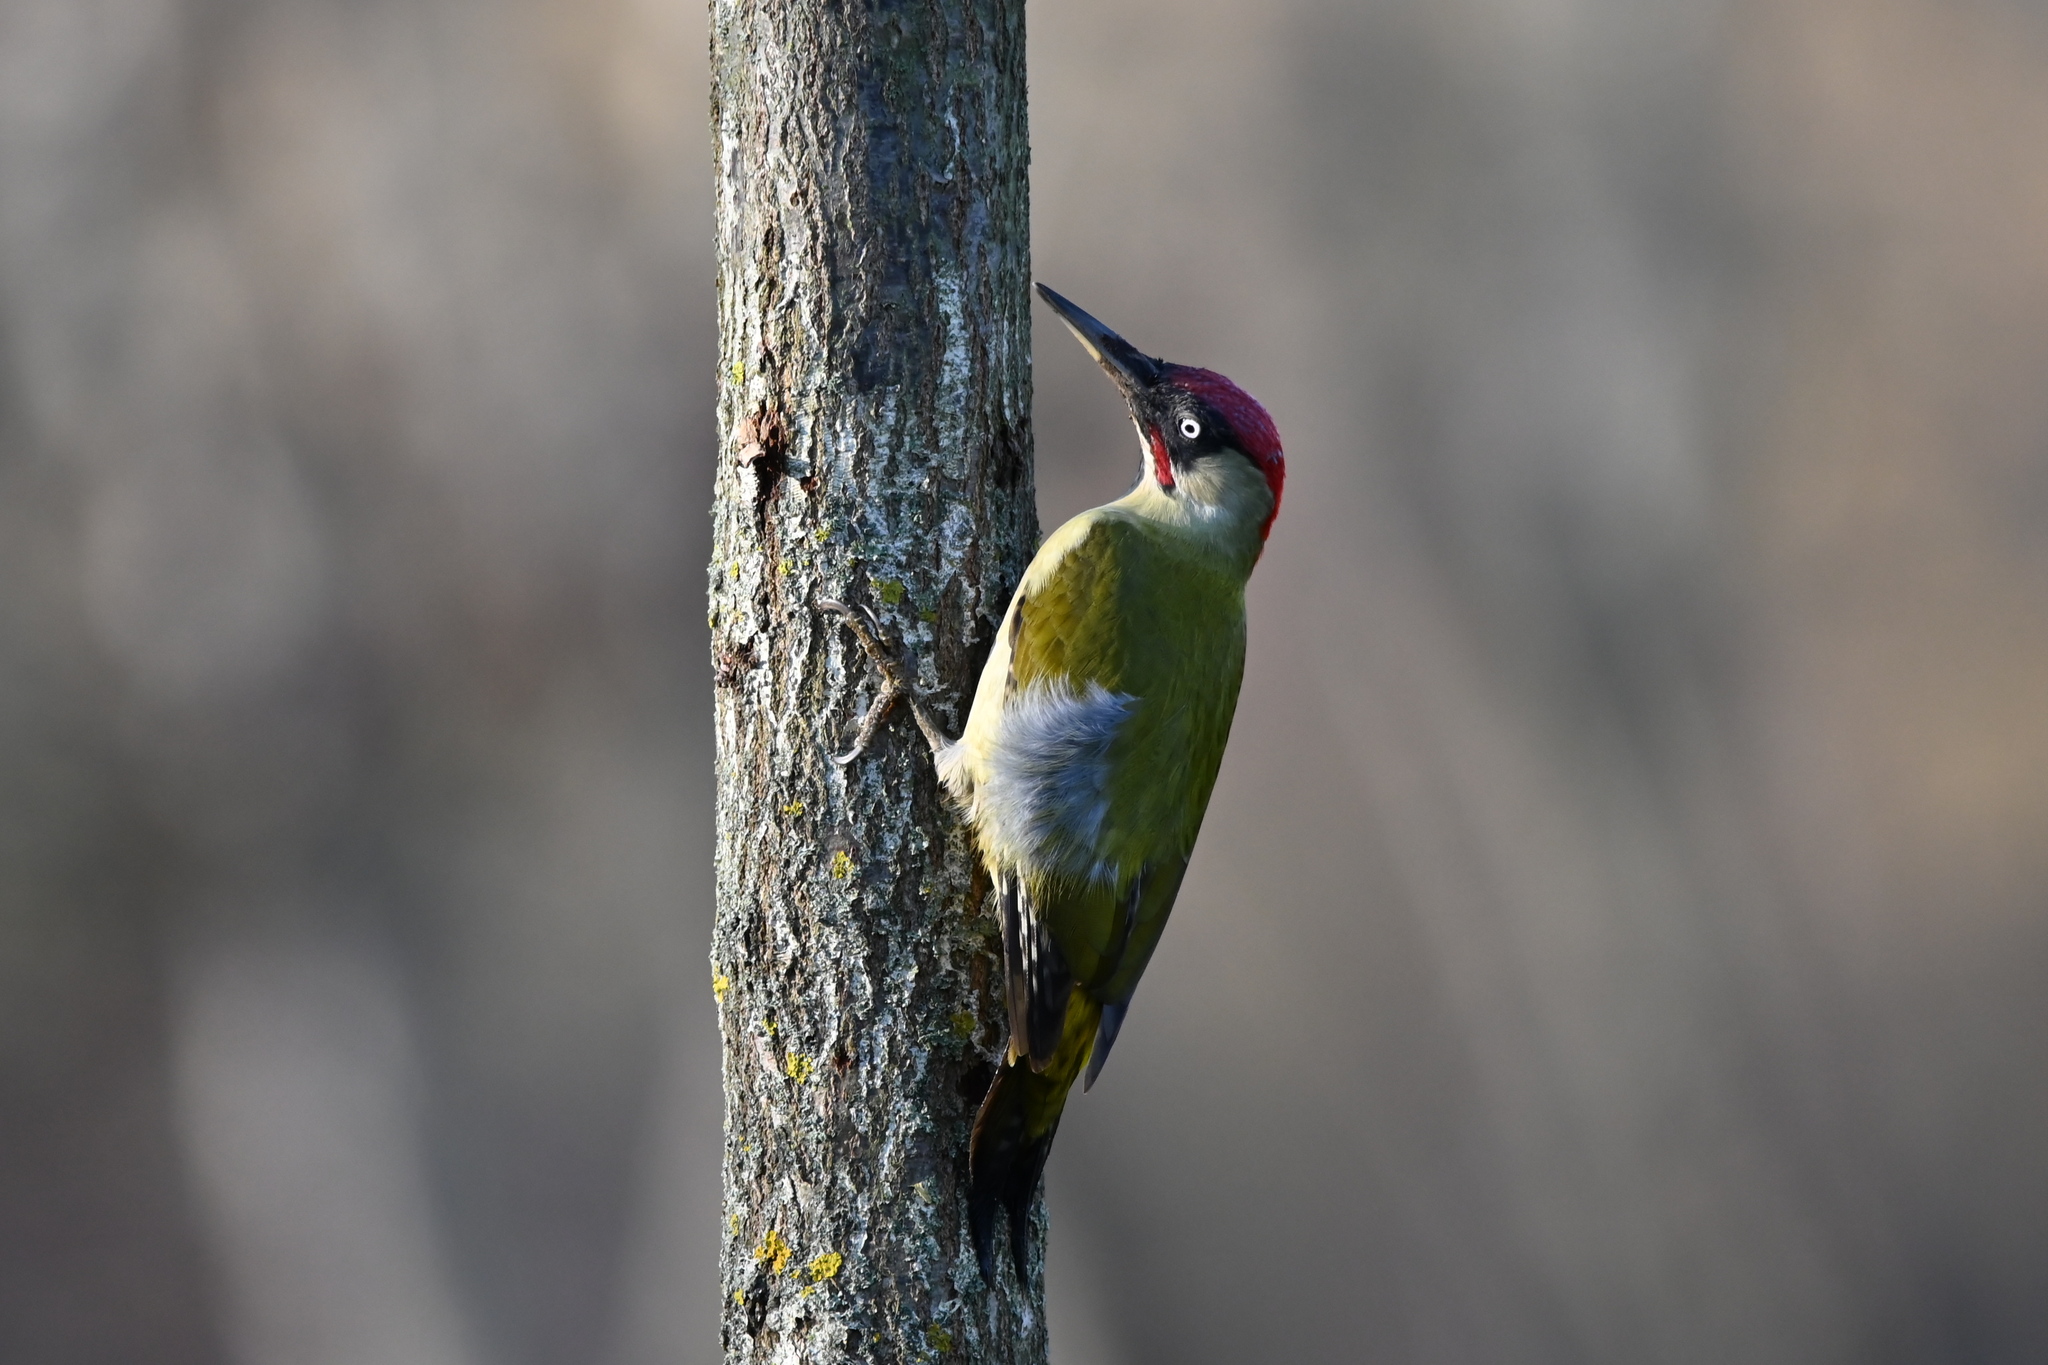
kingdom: Animalia
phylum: Chordata
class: Aves
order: Piciformes
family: Picidae
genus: Picus
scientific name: Picus viridis
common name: European green woodpecker
